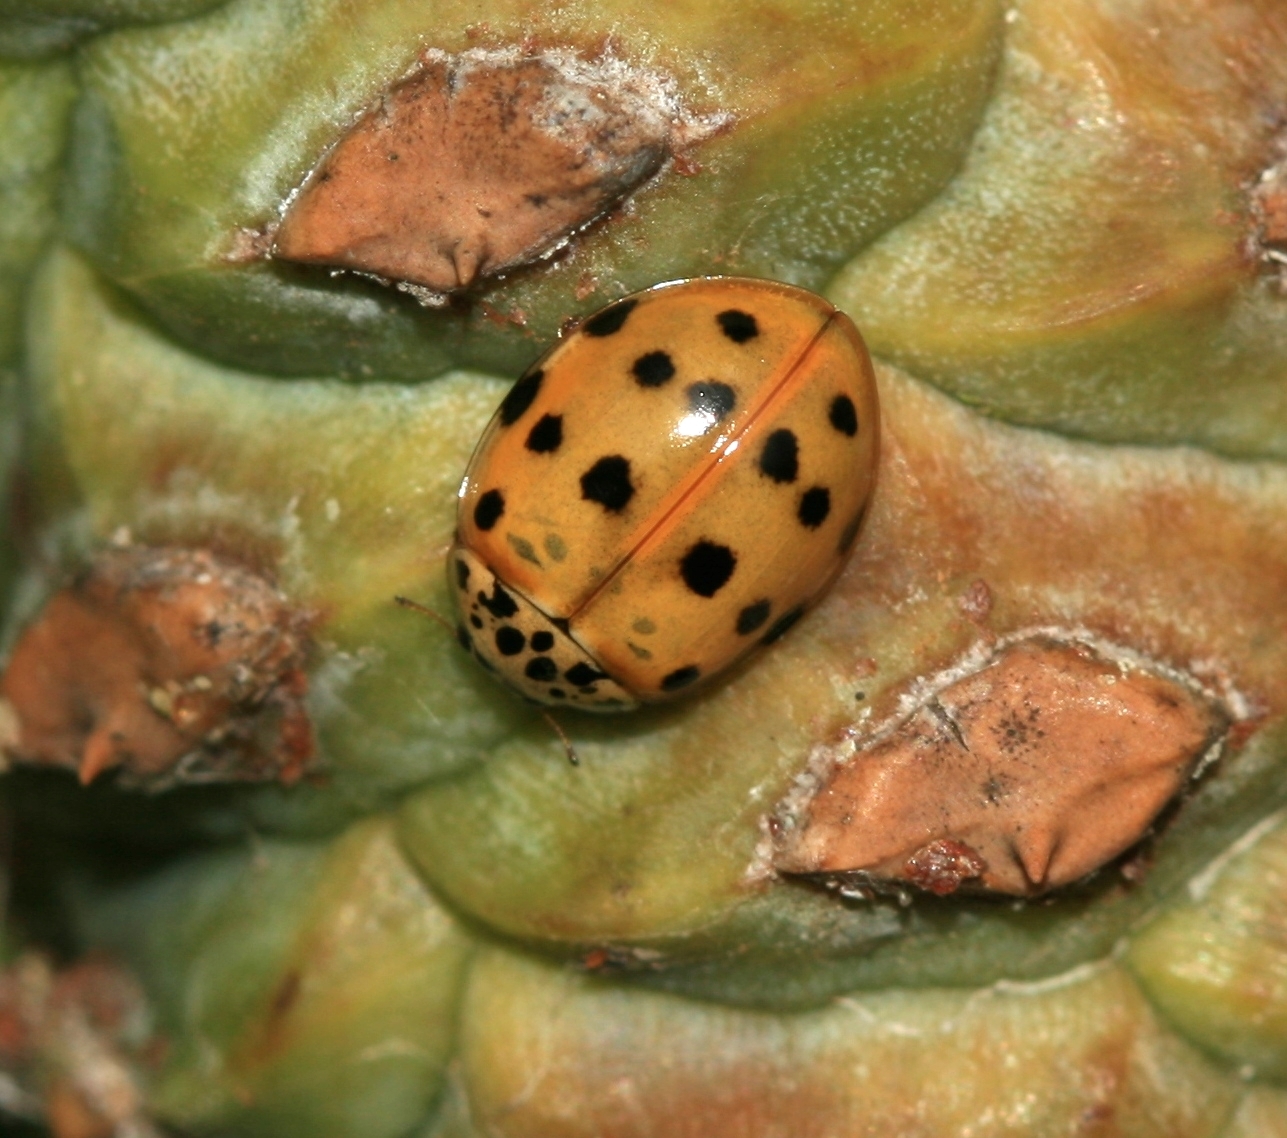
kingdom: Animalia
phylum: Arthropoda
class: Insecta
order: Coleoptera
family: Coccinellidae
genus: Harmonia
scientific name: Harmonia quadripunctata
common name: Cream-streaked ladybird
